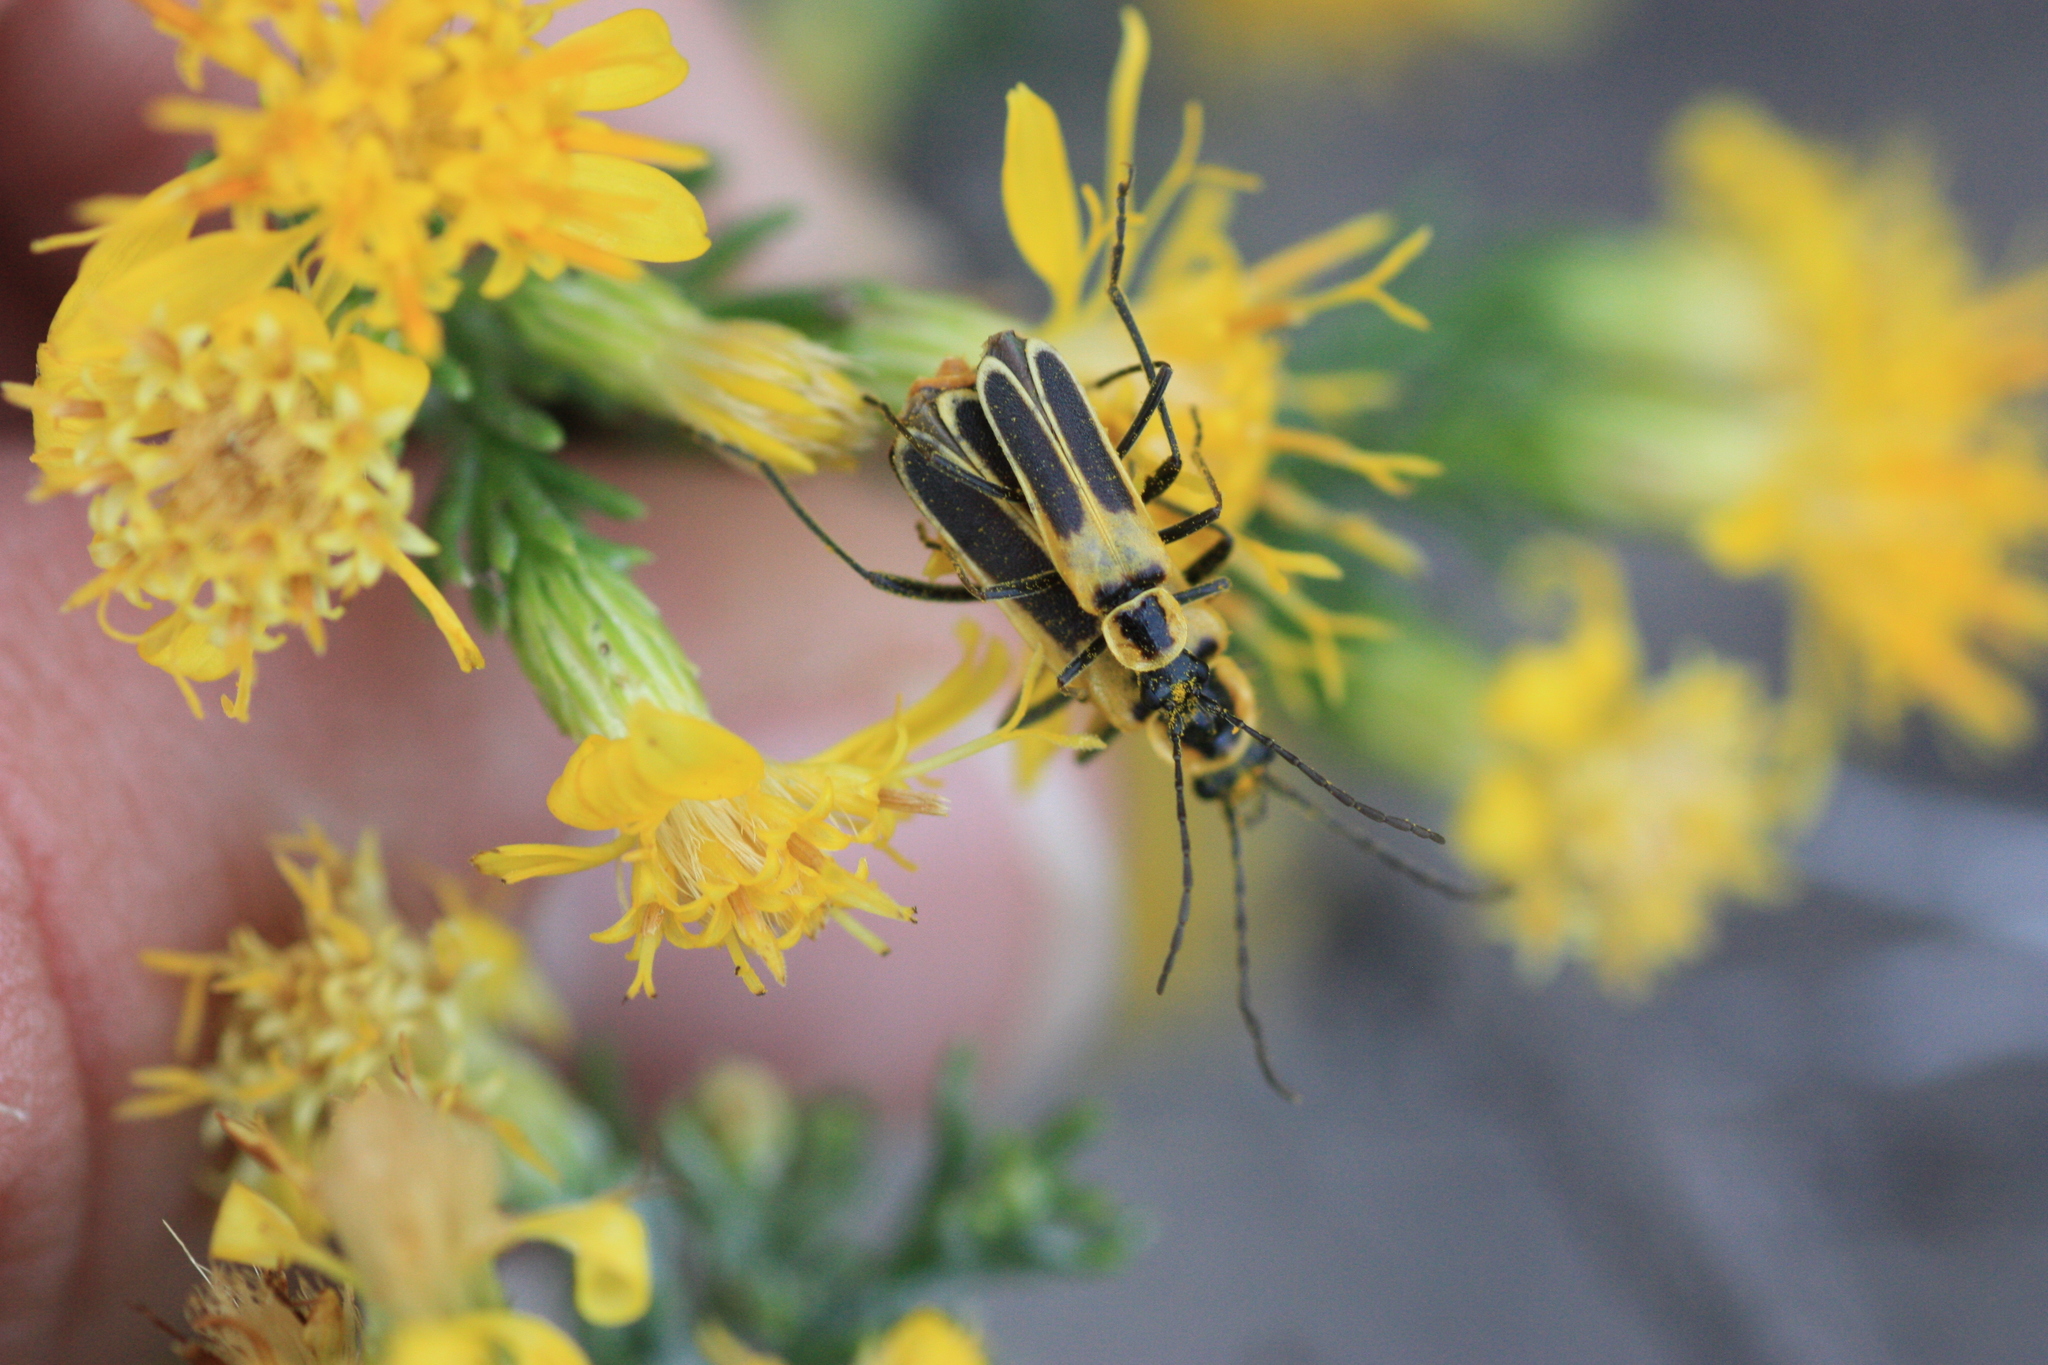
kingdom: Animalia
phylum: Arthropoda
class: Insecta
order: Coleoptera
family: Cantharidae
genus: Chauliognathus
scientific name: Chauliognathus lewisi
